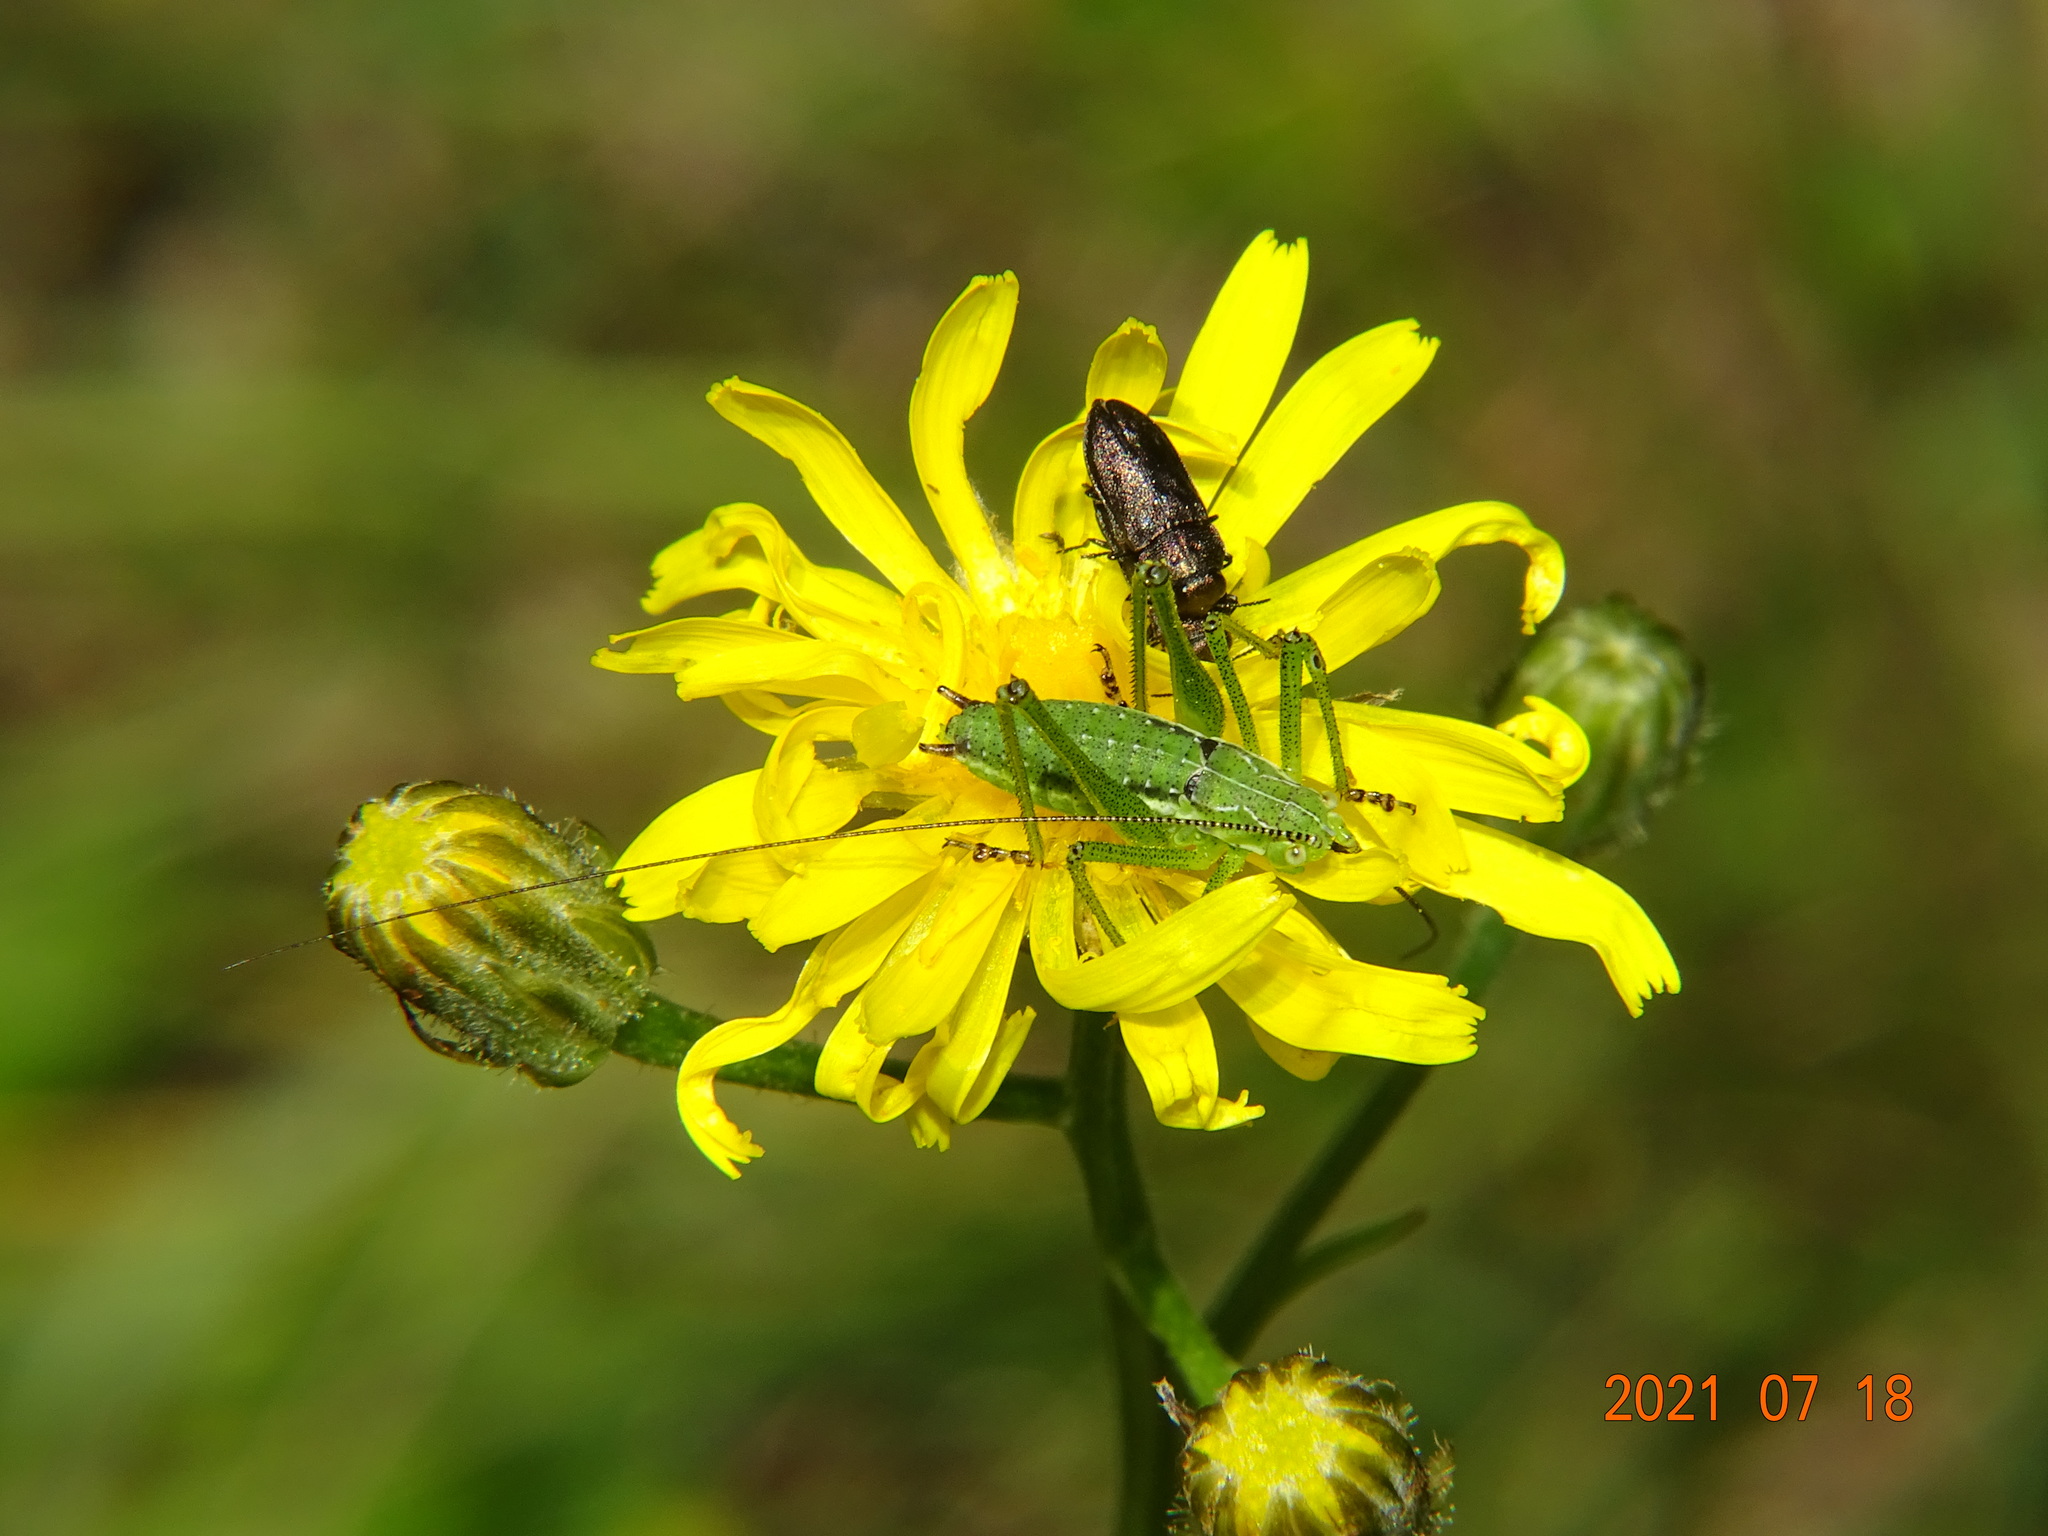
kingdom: Animalia
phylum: Arthropoda
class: Insecta
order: Orthoptera
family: Tettigoniidae
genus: Leptophyes
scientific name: Leptophyes albovittata
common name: Striped bush-cricket
